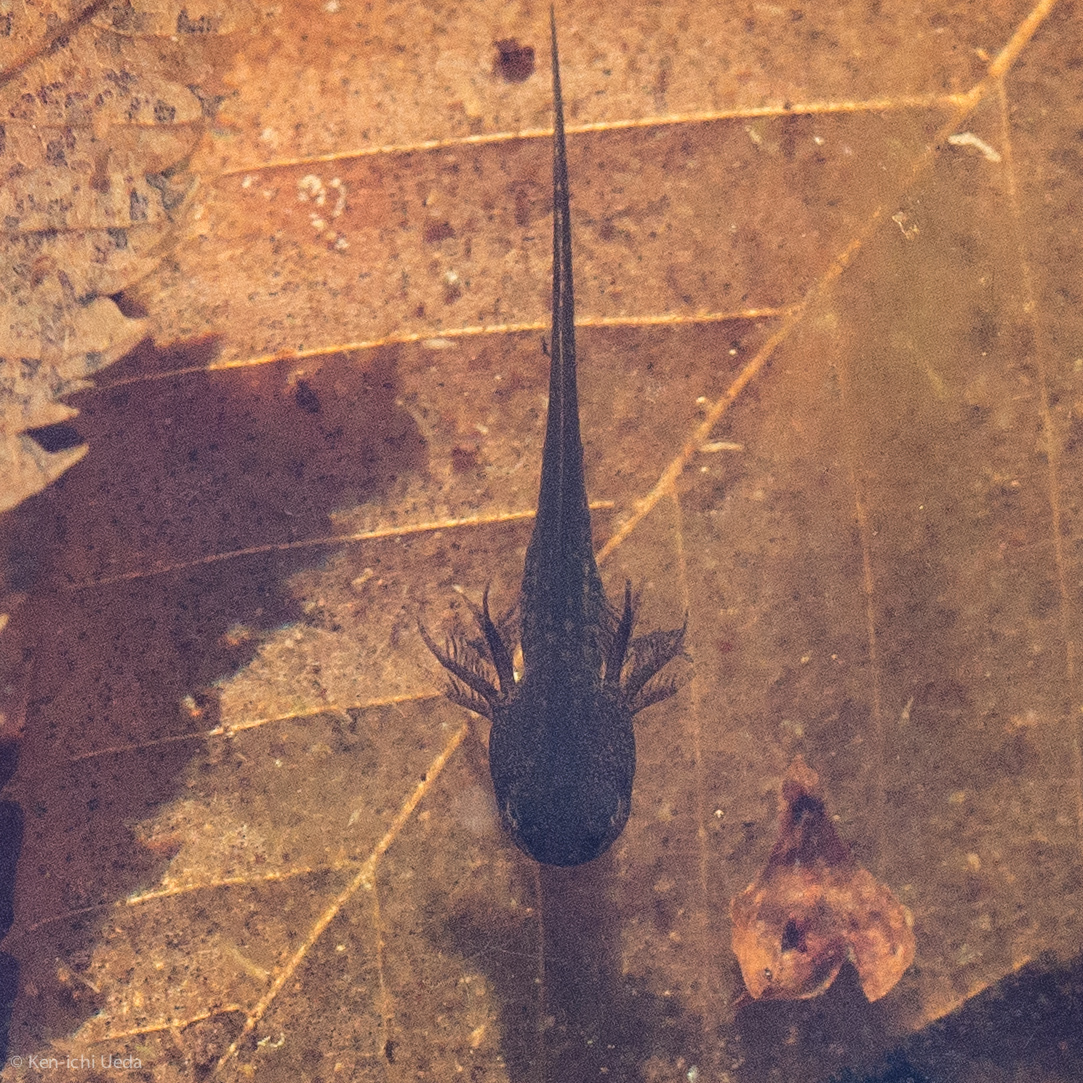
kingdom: Animalia
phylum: Chordata
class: Amphibia
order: Caudata
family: Ambystomatidae
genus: Ambystoma
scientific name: Ambystoma opacum
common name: Marbled salamander
